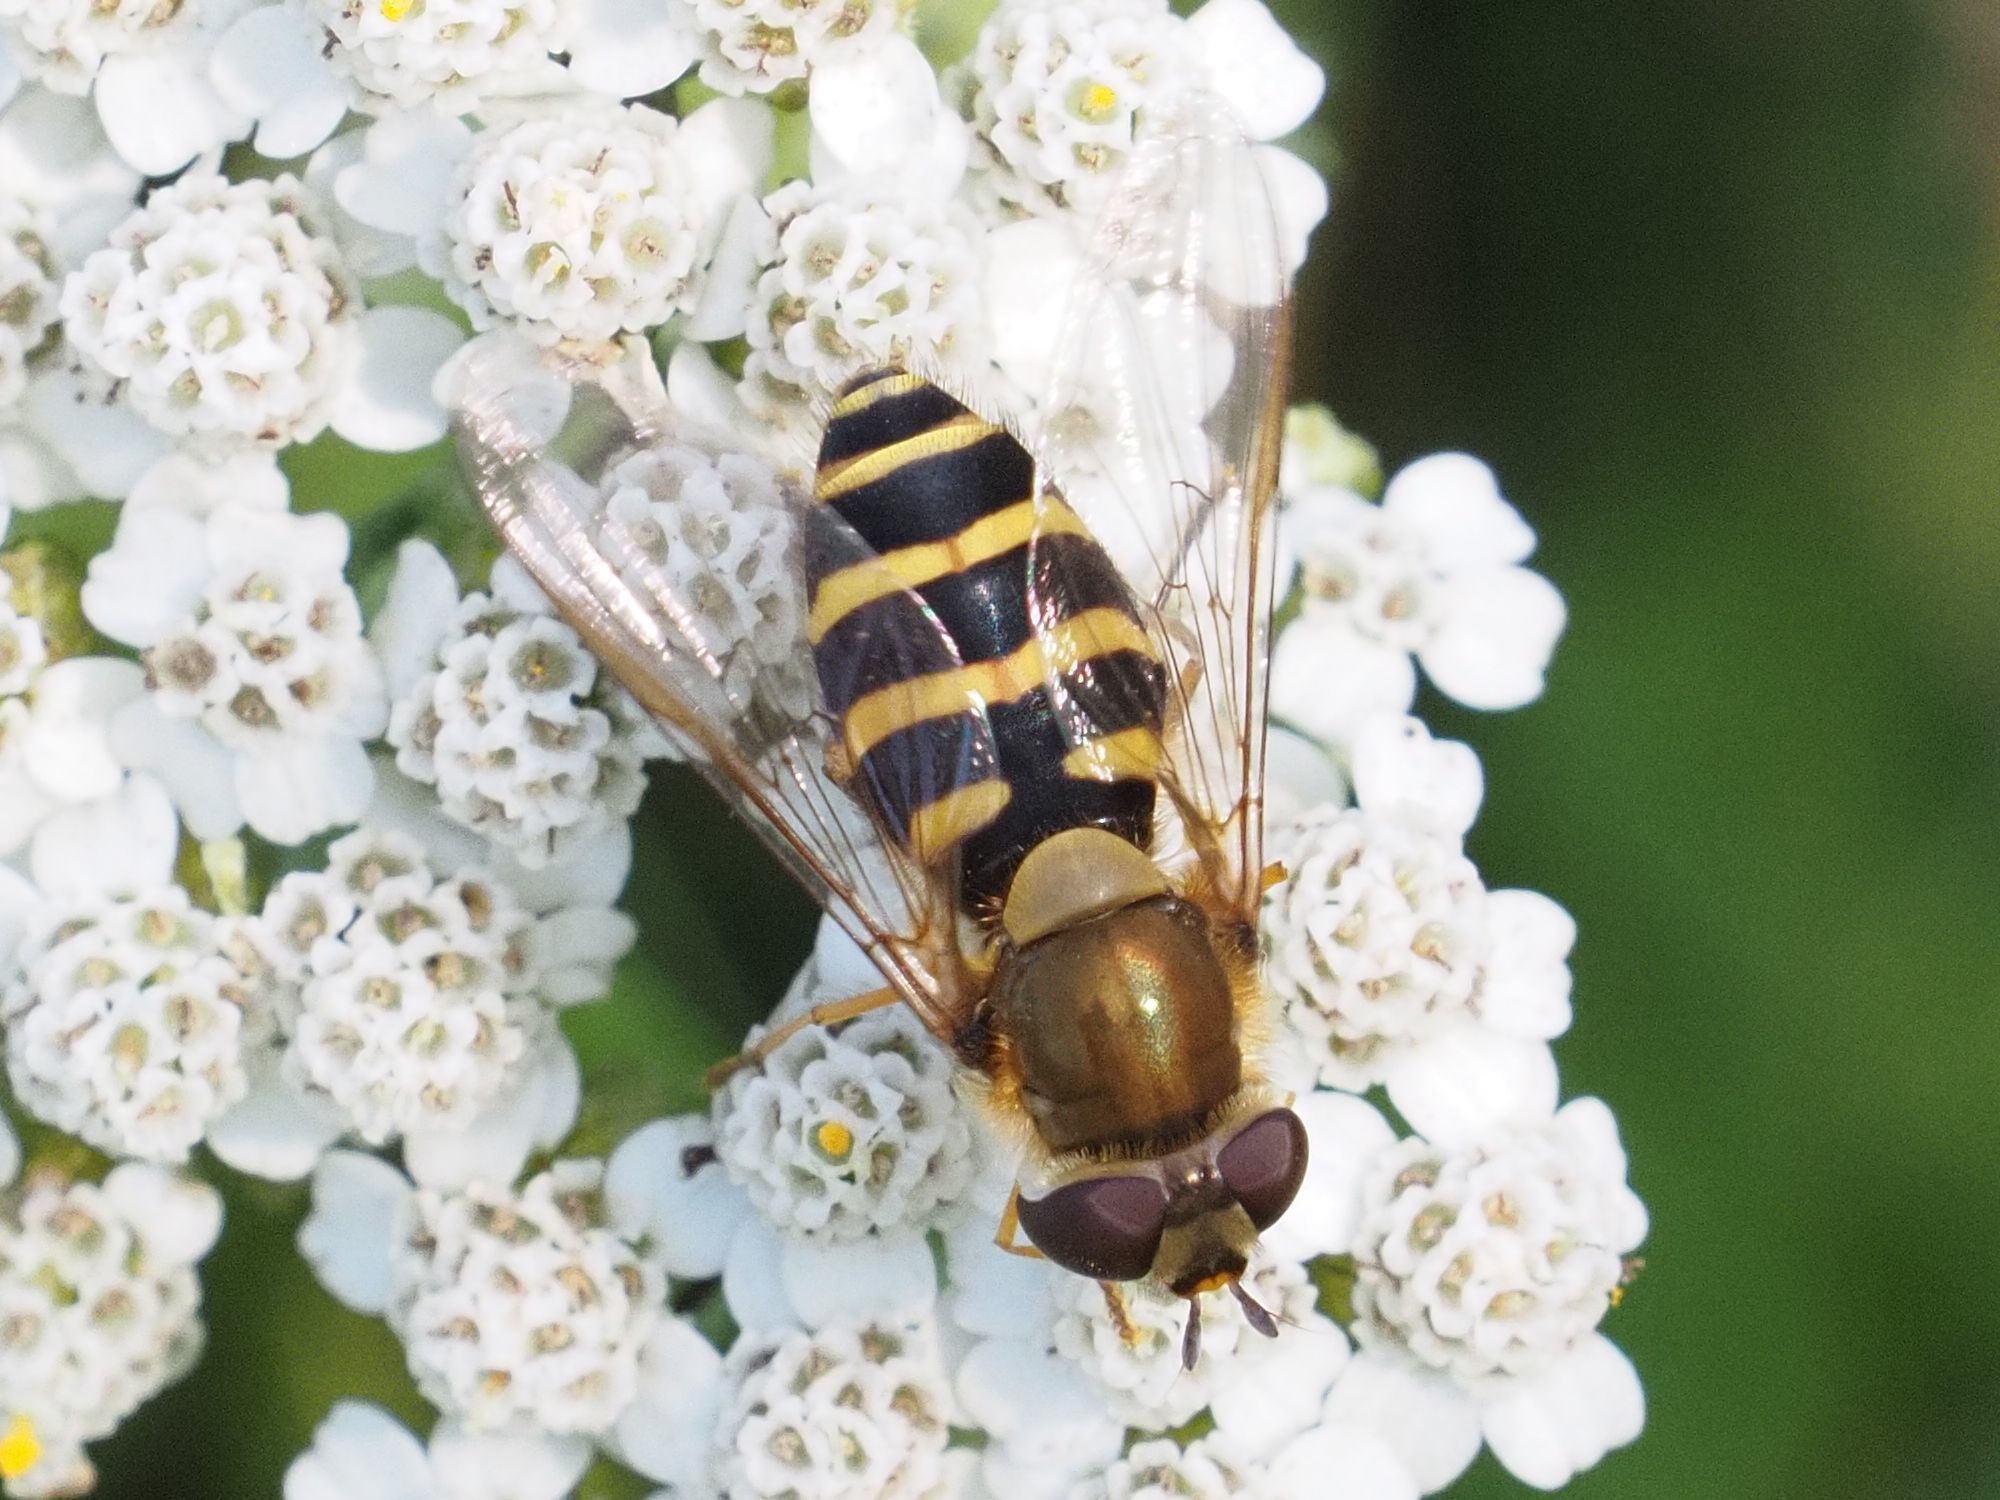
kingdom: Animalia
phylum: Arthropoda
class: Insecta
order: Diptera
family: Syrphidae
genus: Syrphus
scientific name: Syrphus torvus
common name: Hairy-eyed flower fly
